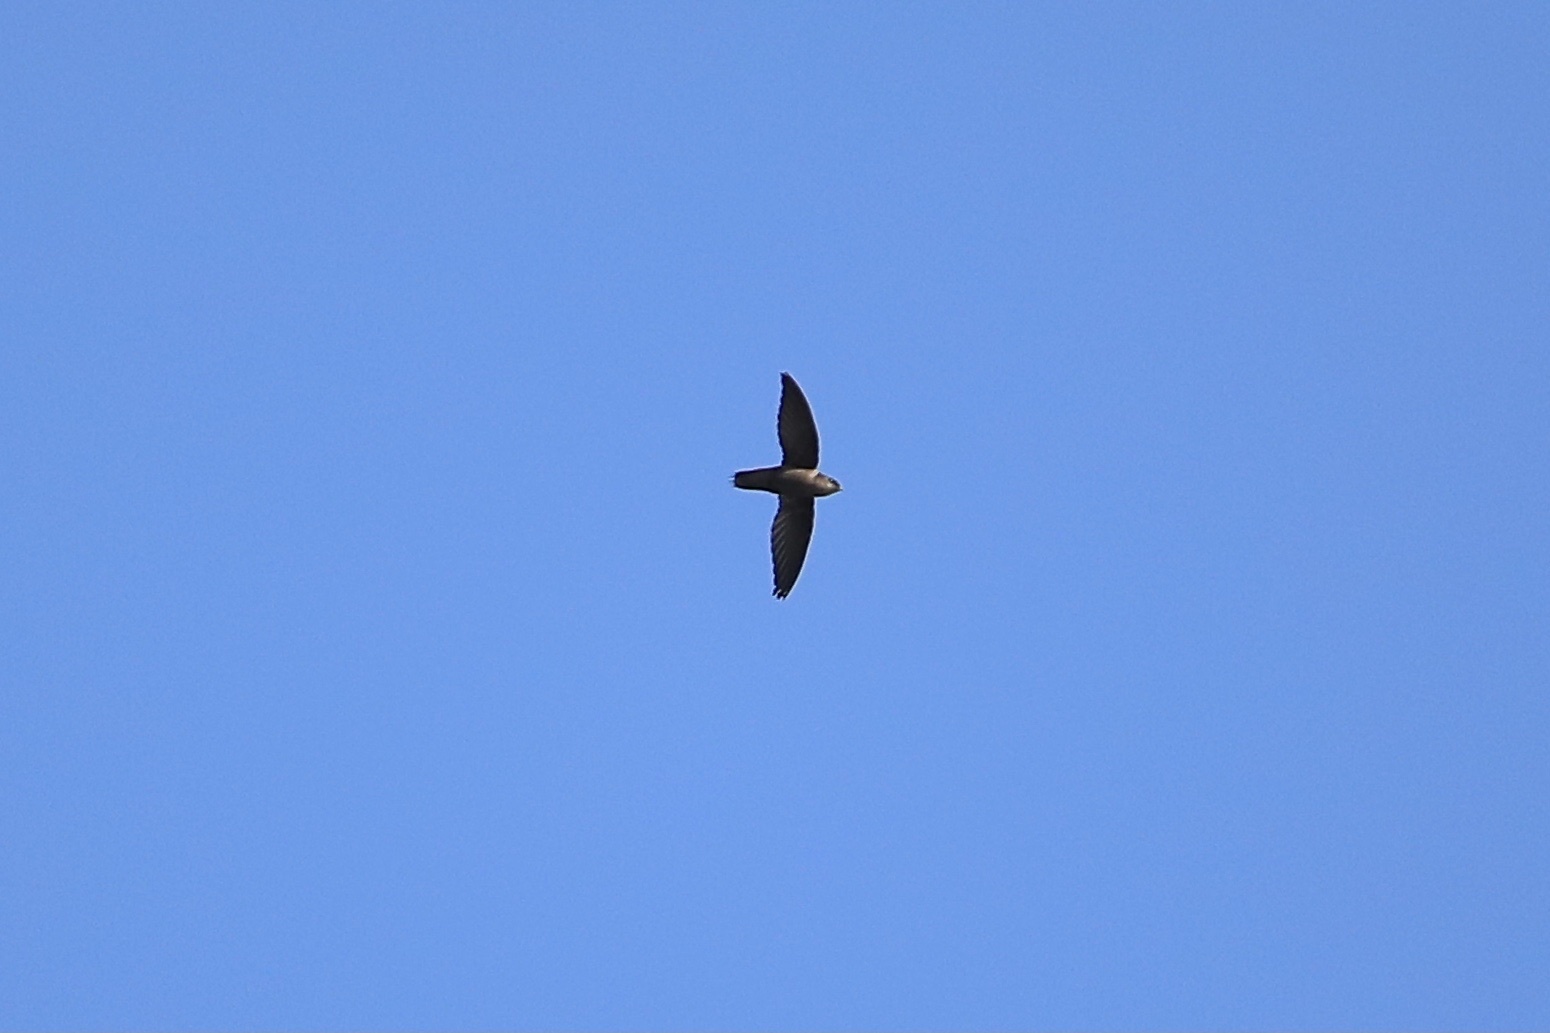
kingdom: Animalia
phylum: Chordata
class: Aves
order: Apodiformes
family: Apodidae
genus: Chaetura
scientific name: Chaetura pelagica
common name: Chimney swift
